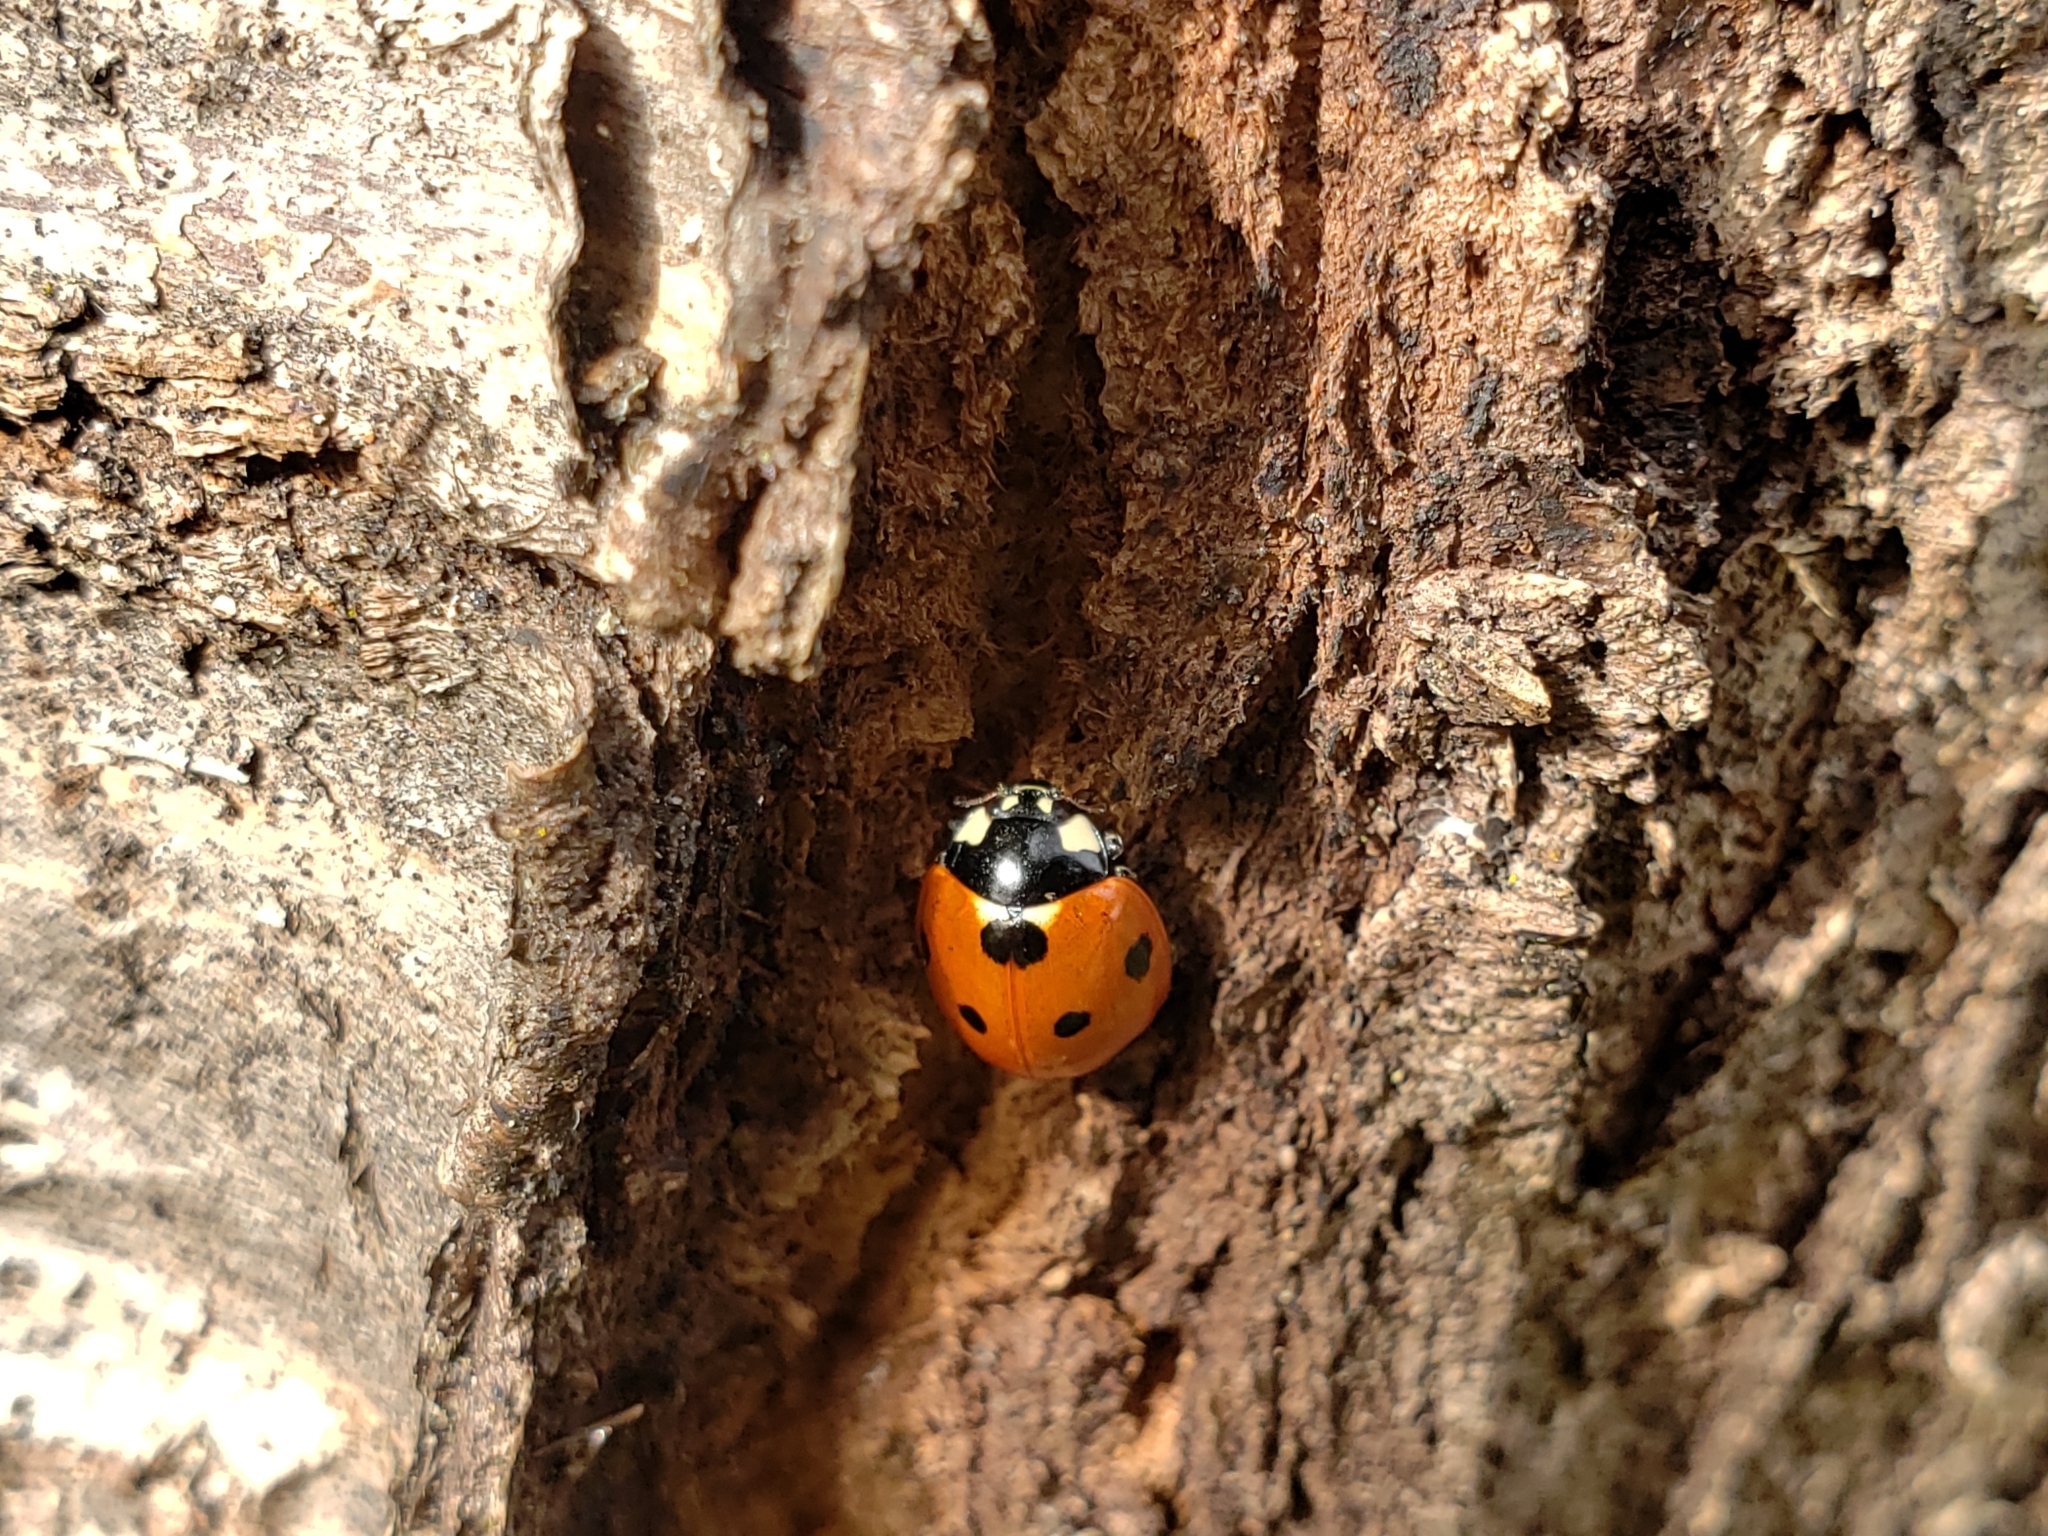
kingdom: Animalia
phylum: Arthropoda
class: Insecta
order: Coleoptera
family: Coccinellidae
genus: Coccinella
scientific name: Coccinella septempunctata
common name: Sevenspotted lady beetle
